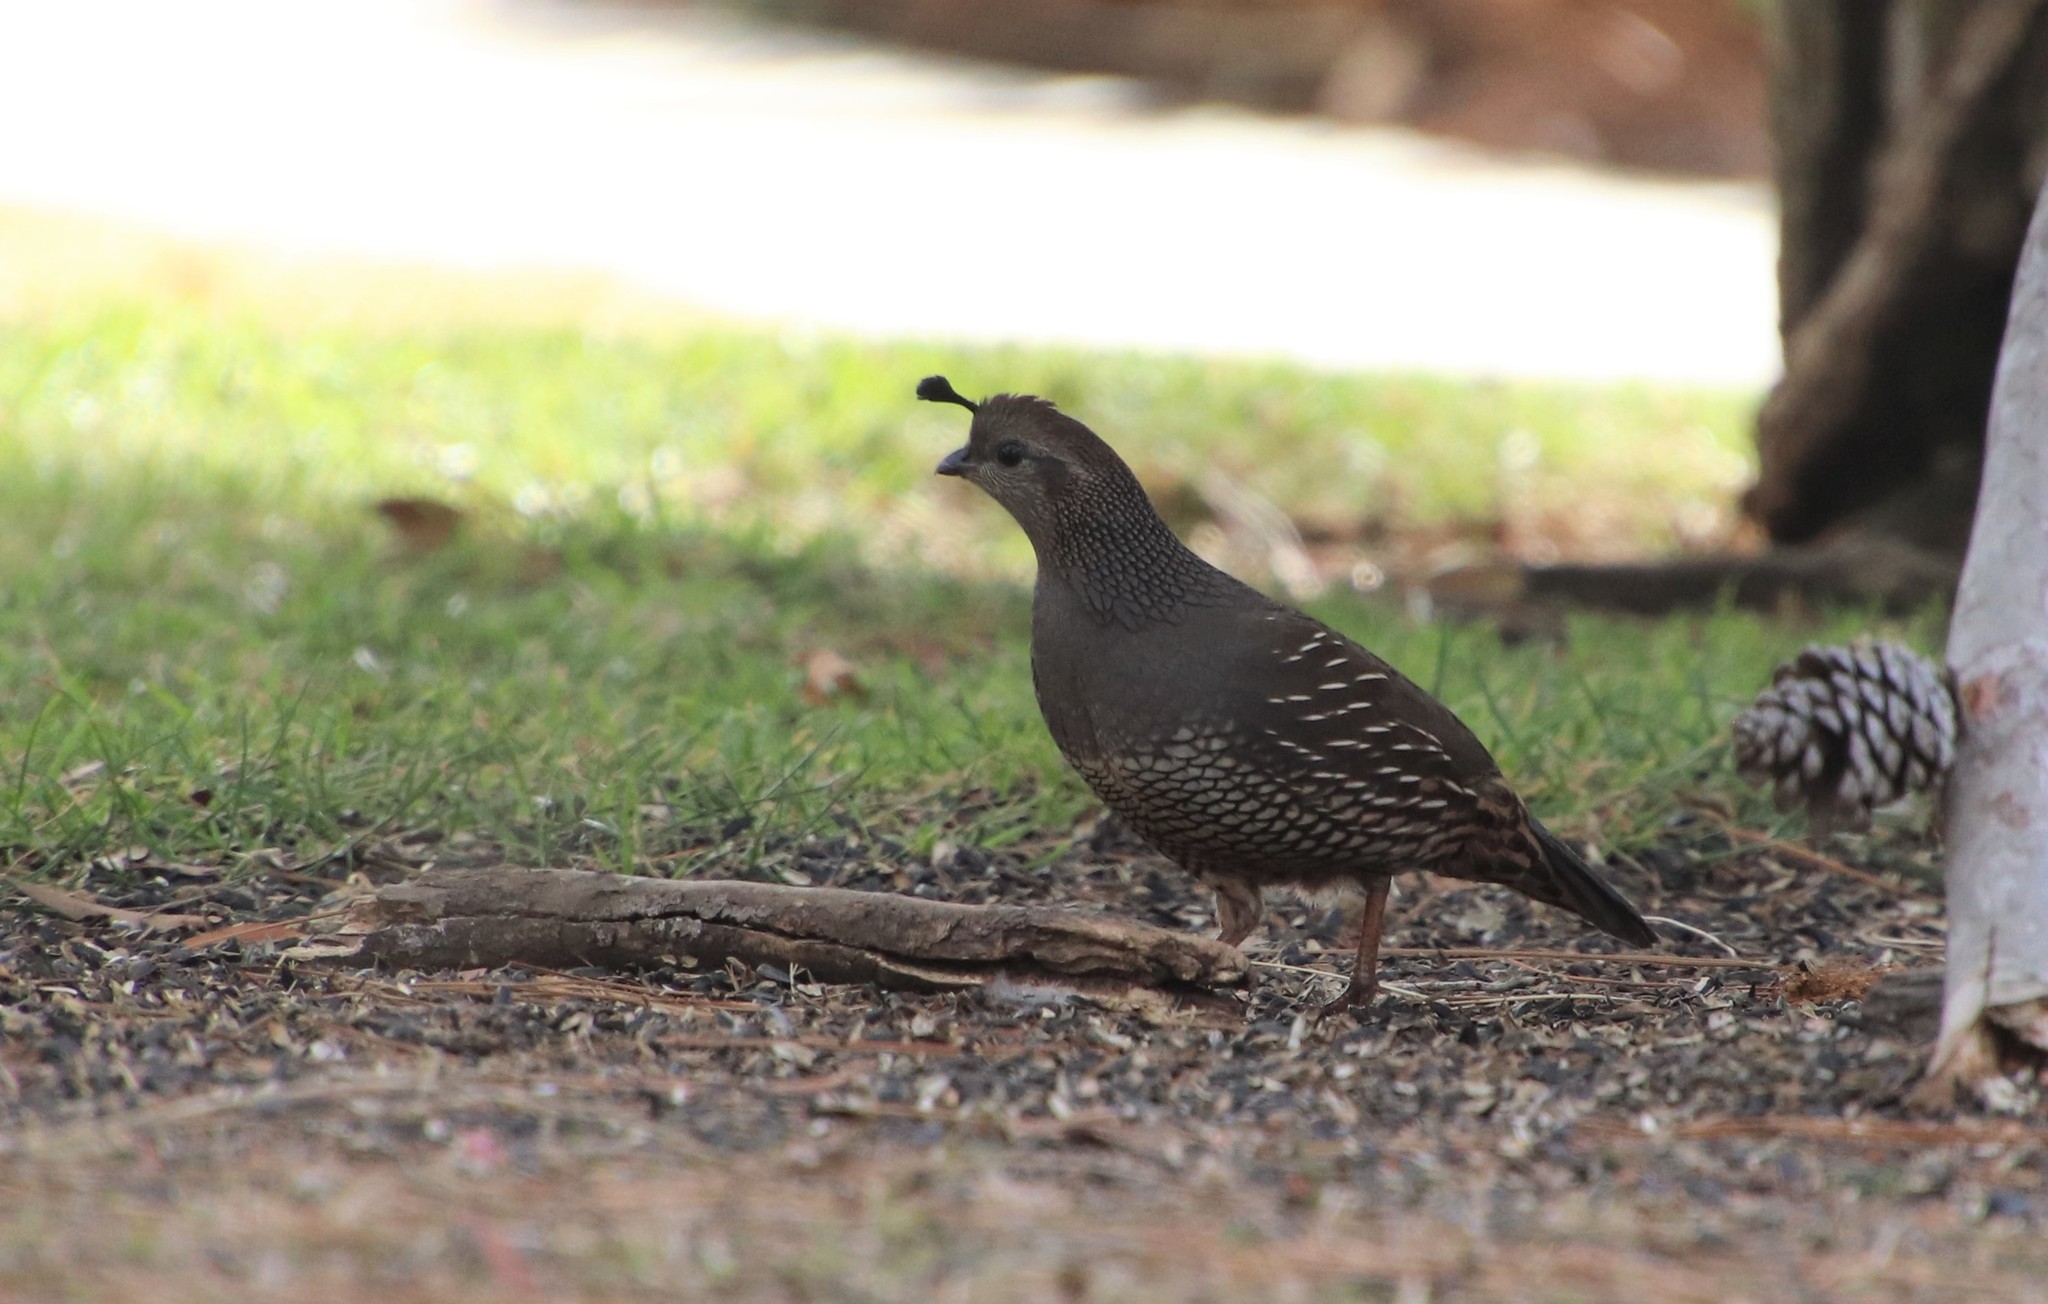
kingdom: Animalia
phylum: Chordata
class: Aves
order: Galliformes
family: Odontophoridae
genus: Callipepla
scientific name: Callipepla californica
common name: California quail
